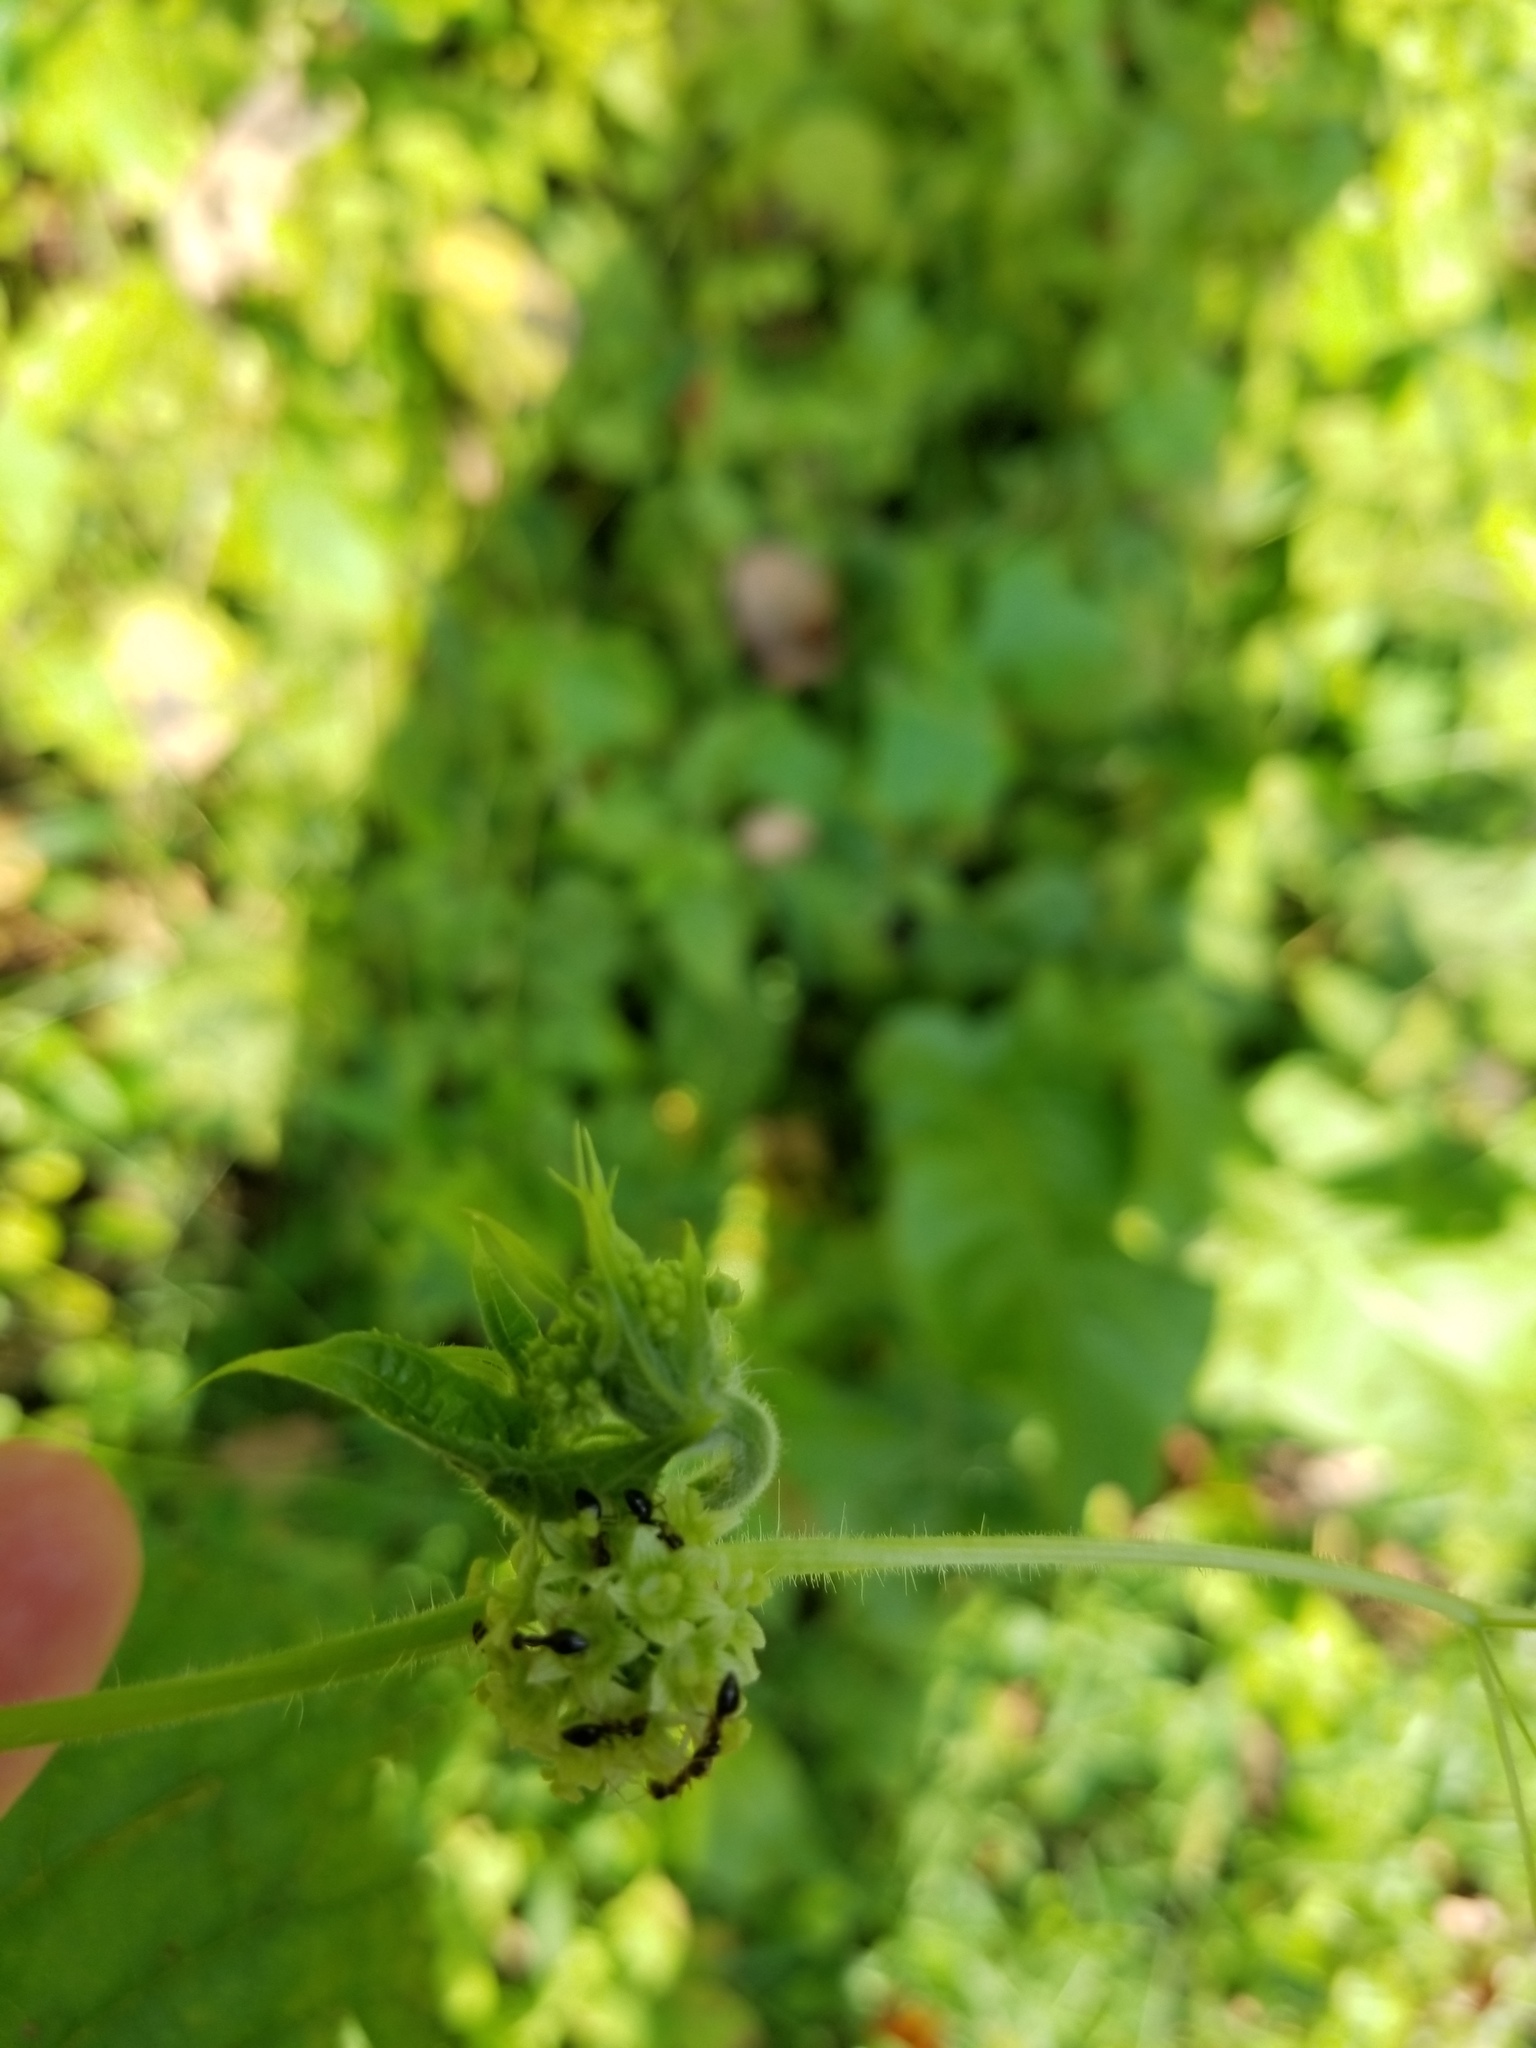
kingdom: Plantae
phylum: Tracheophyta
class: Magnoliopsida
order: Cucurbitales
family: Cucurbitaceae
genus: Sicyos
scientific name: Sicyos angulatus
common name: Angled burr cucumber
